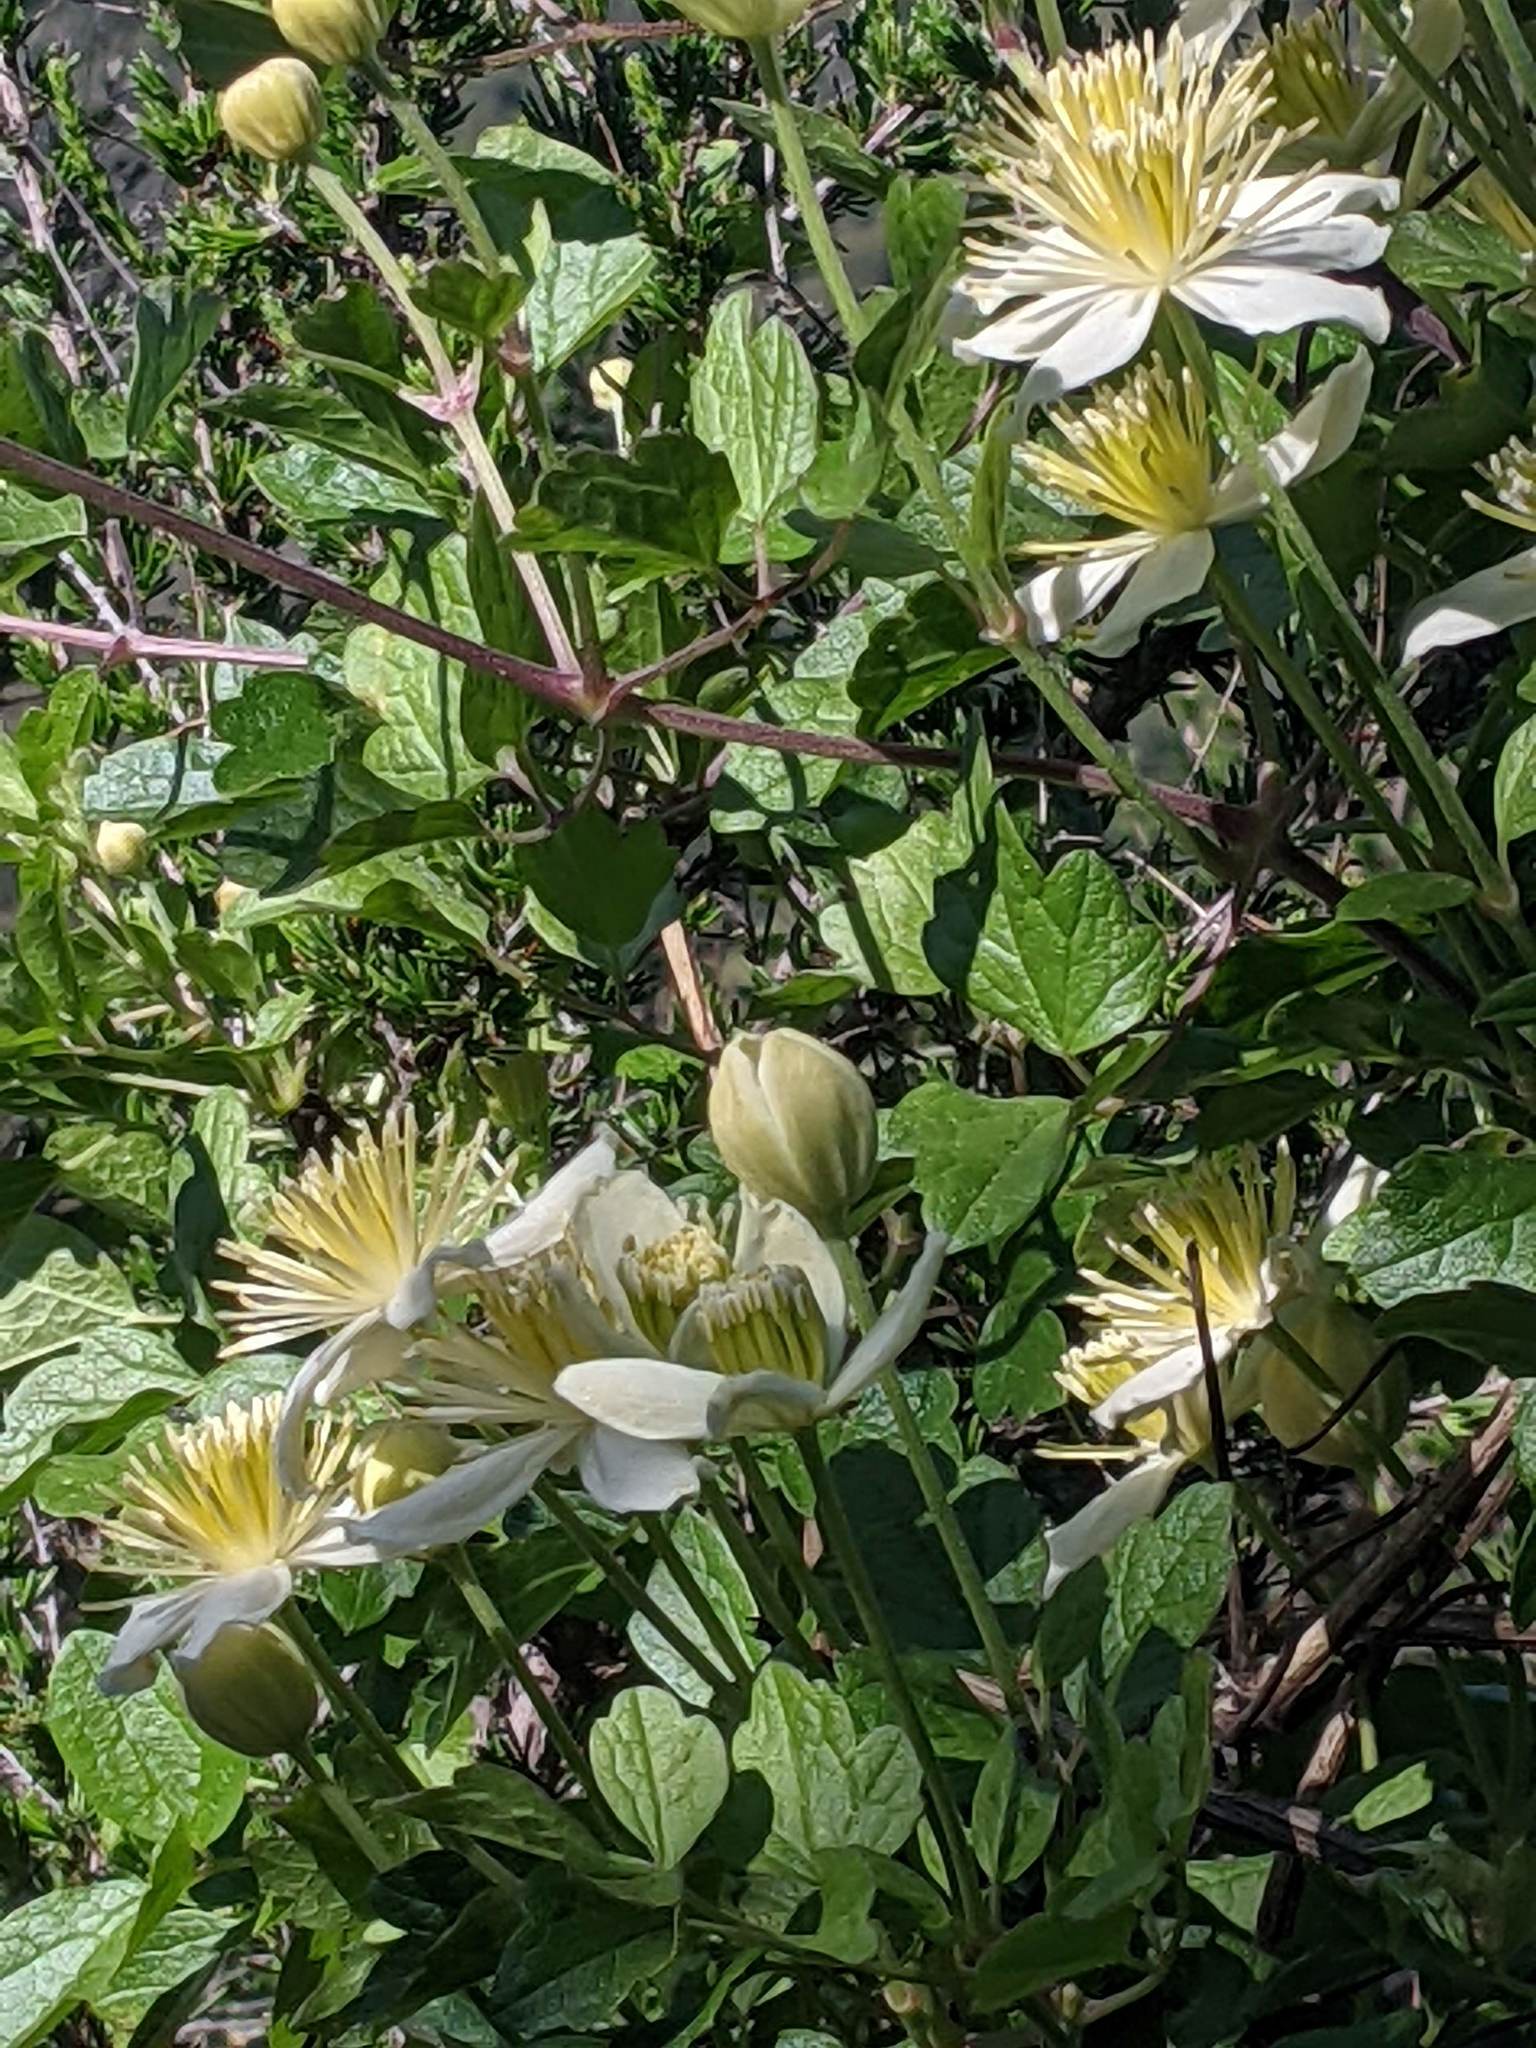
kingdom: Plantae
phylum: Tracheophyta
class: Magnoliopsida
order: Ranunculales
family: Ranunculaceae
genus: Clematis
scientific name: Clematis lasiantha
